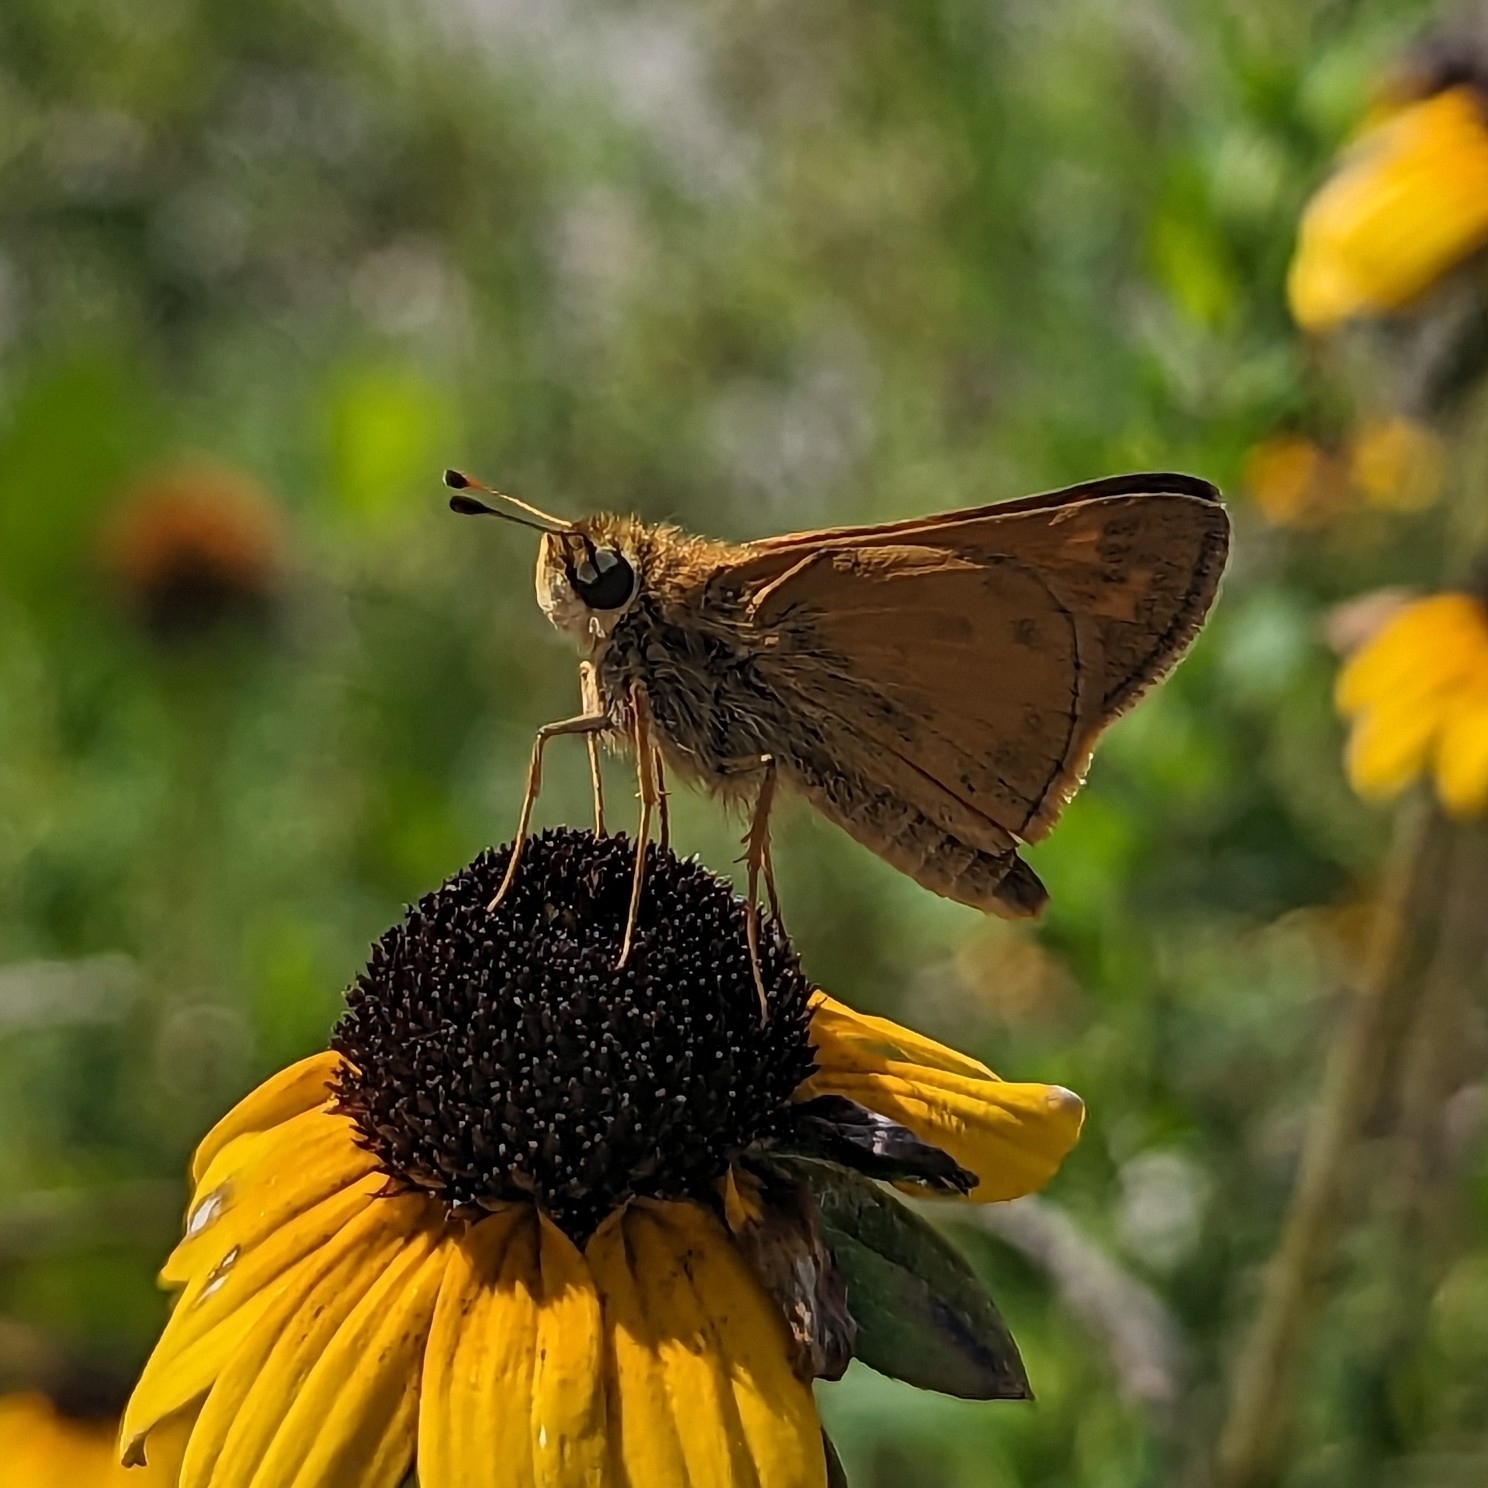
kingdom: Animalia
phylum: Arthropoda
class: Insecta
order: Lepidoptera
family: Hesperiidae
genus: Atalopedes
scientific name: Atalopedes
